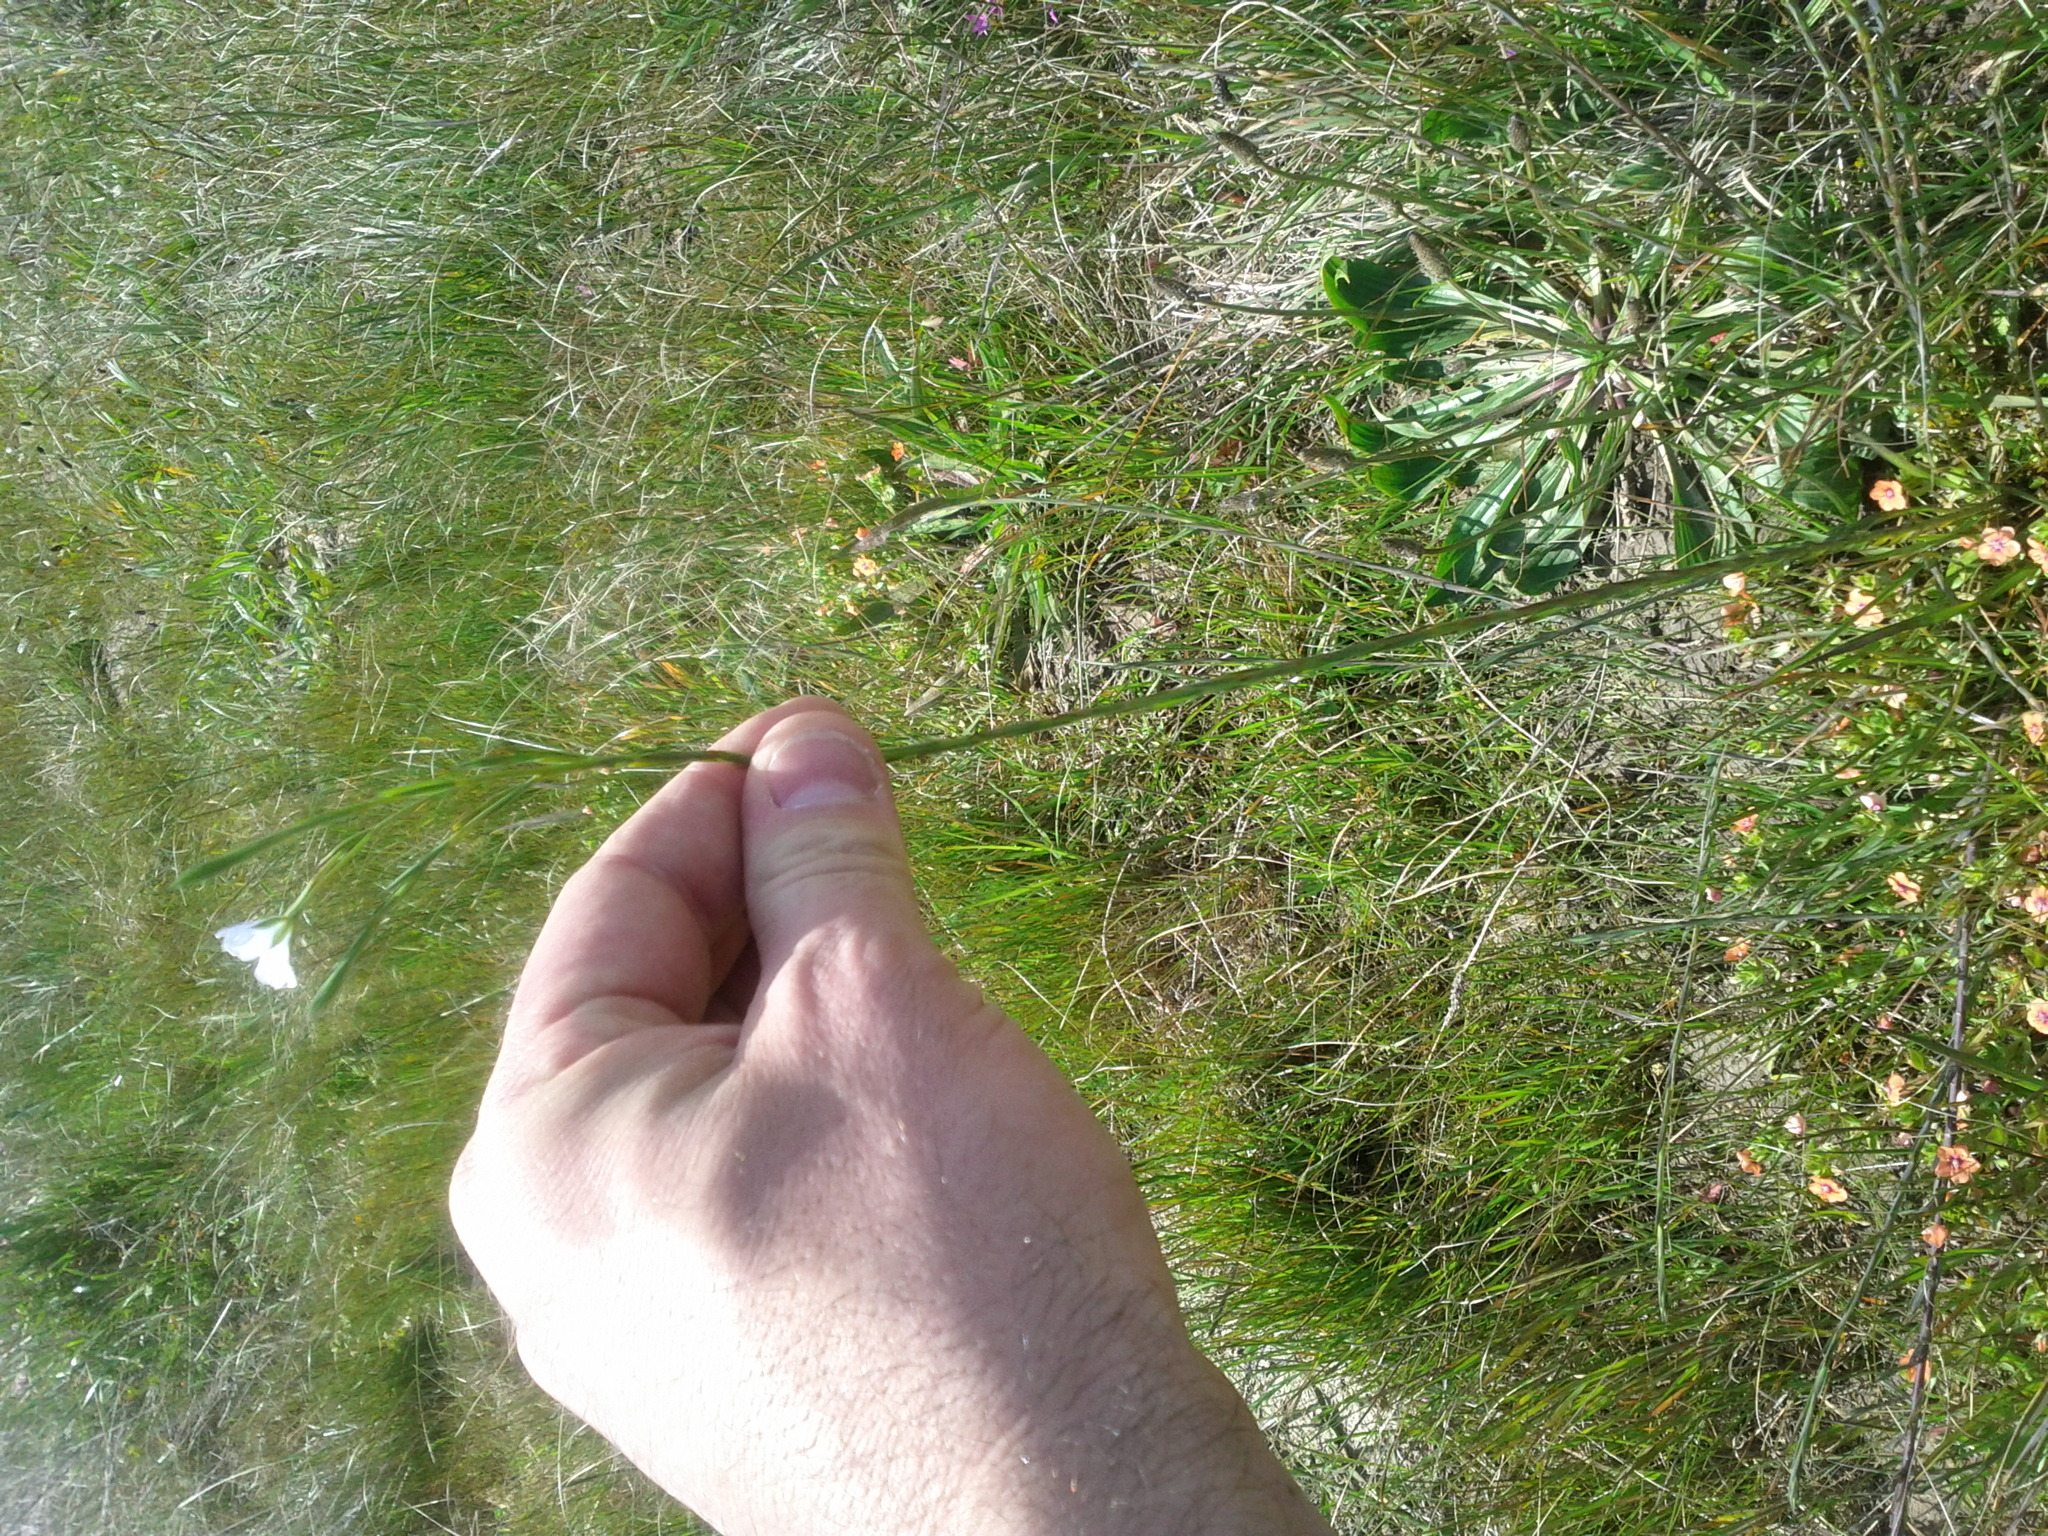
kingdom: Plantae
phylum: Tracheophyta
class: Magnoliopsida
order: Malpighiales
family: Linaceae
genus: Linum
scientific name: Linum bienne
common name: Pale flax
